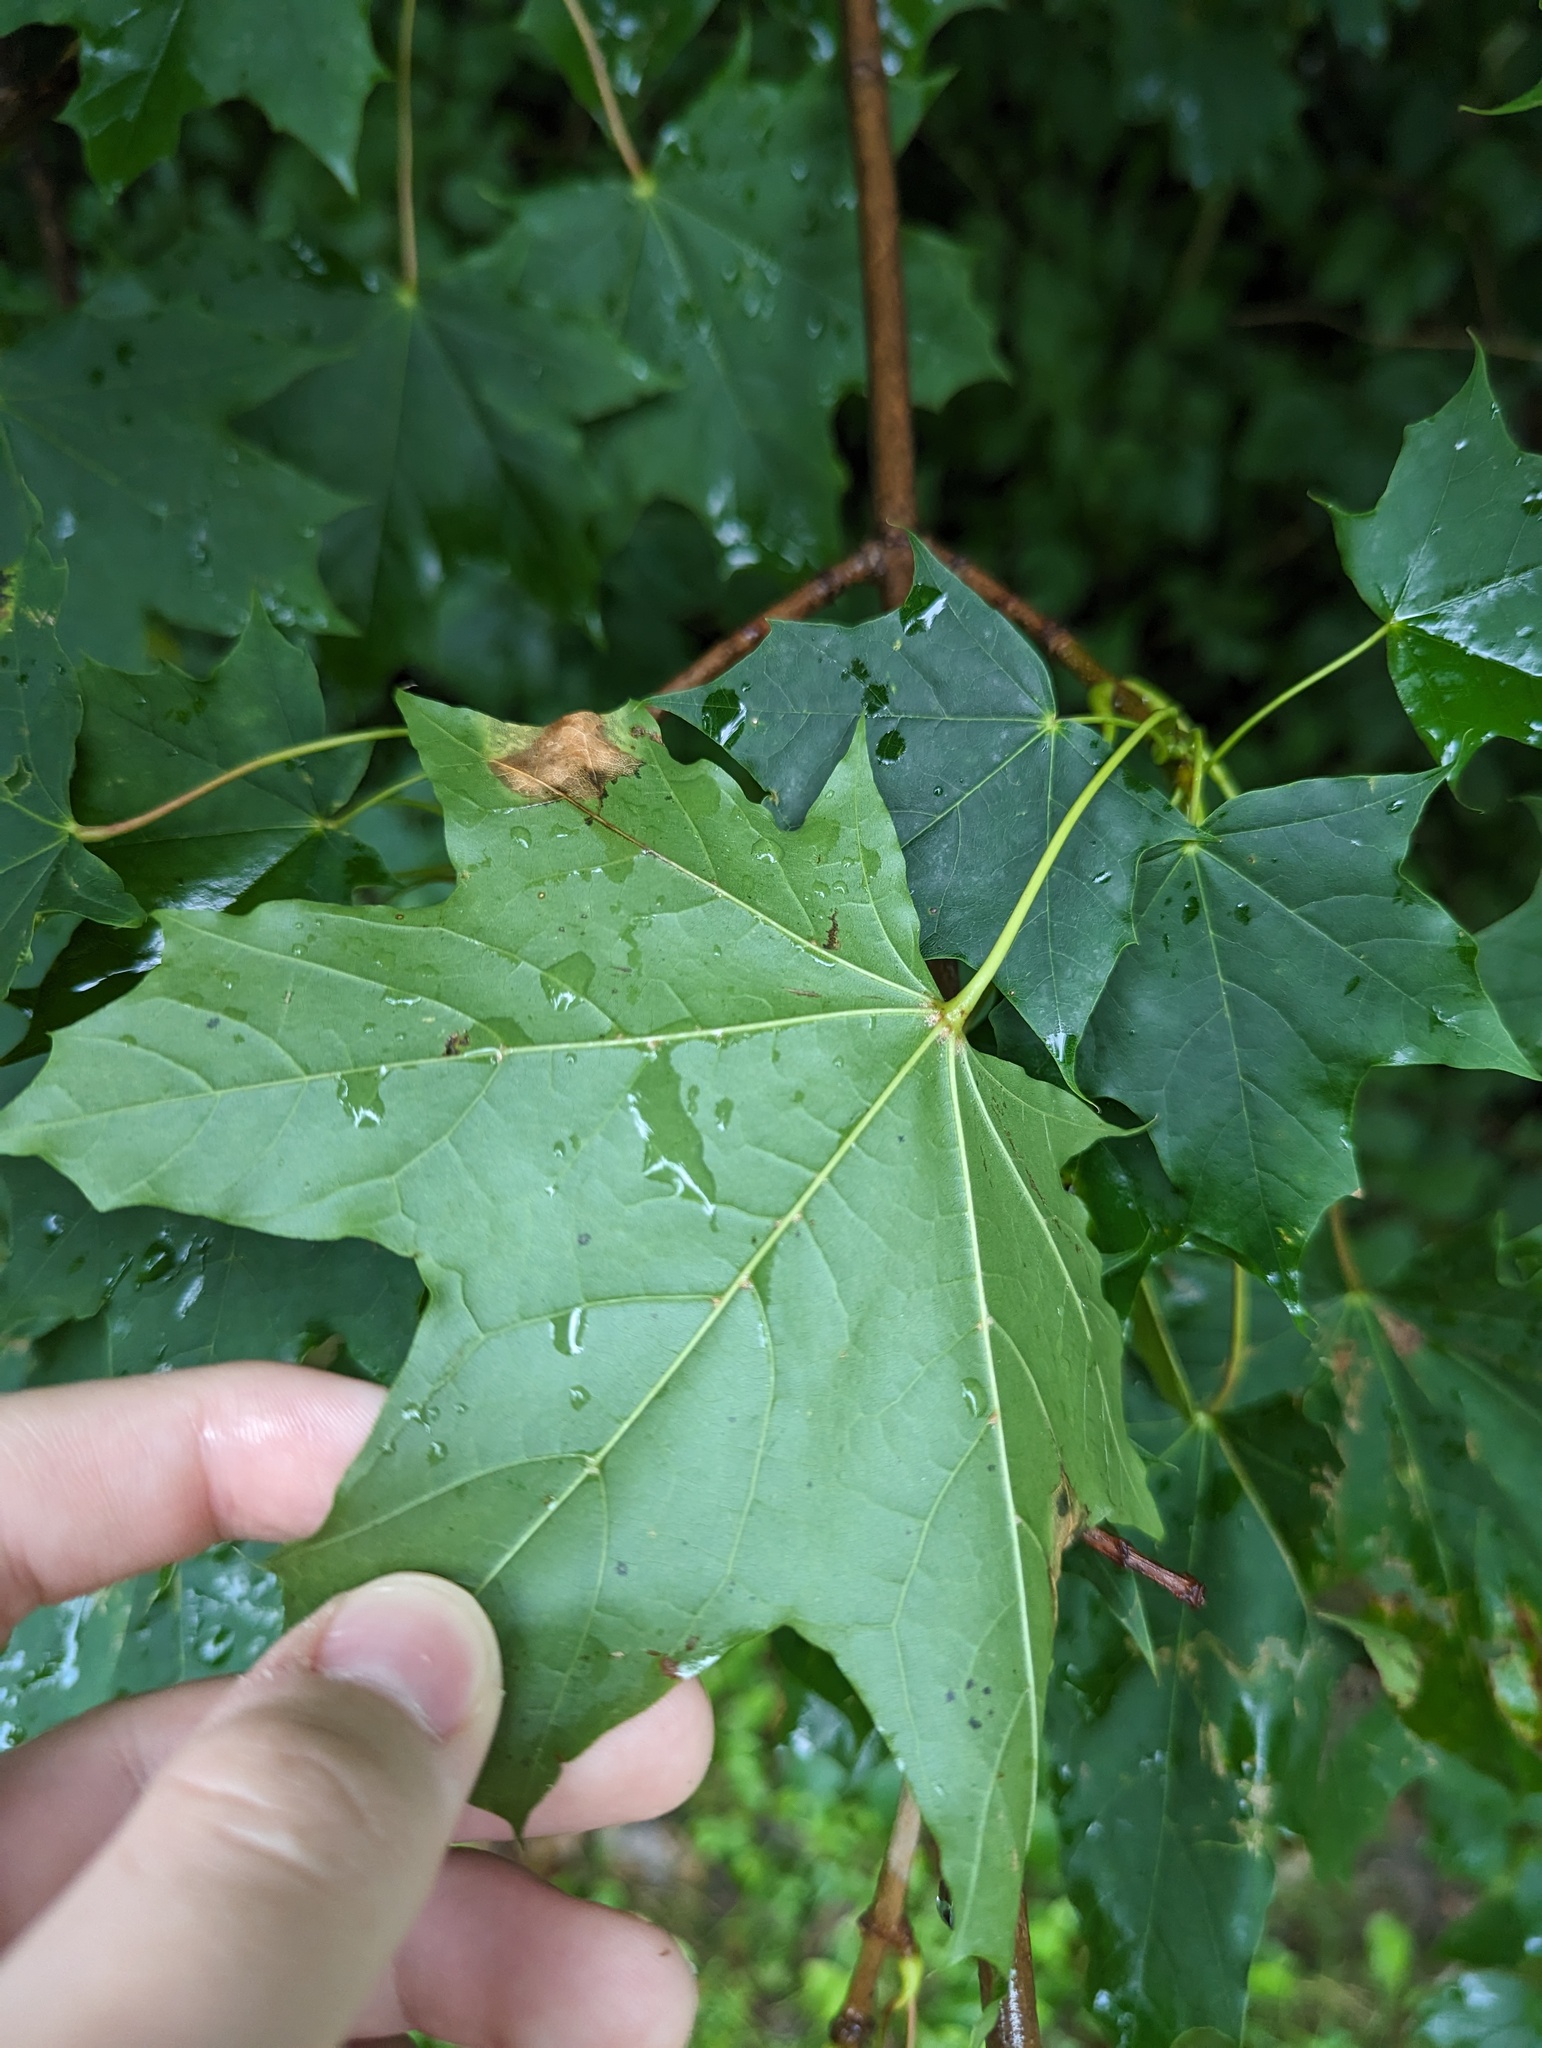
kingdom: Plantae
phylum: Tracheophyta
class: Magnoliopsida
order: Sapindales
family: Sapindaceae
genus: Acer
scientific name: Acer platanoides
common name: Norway maple
